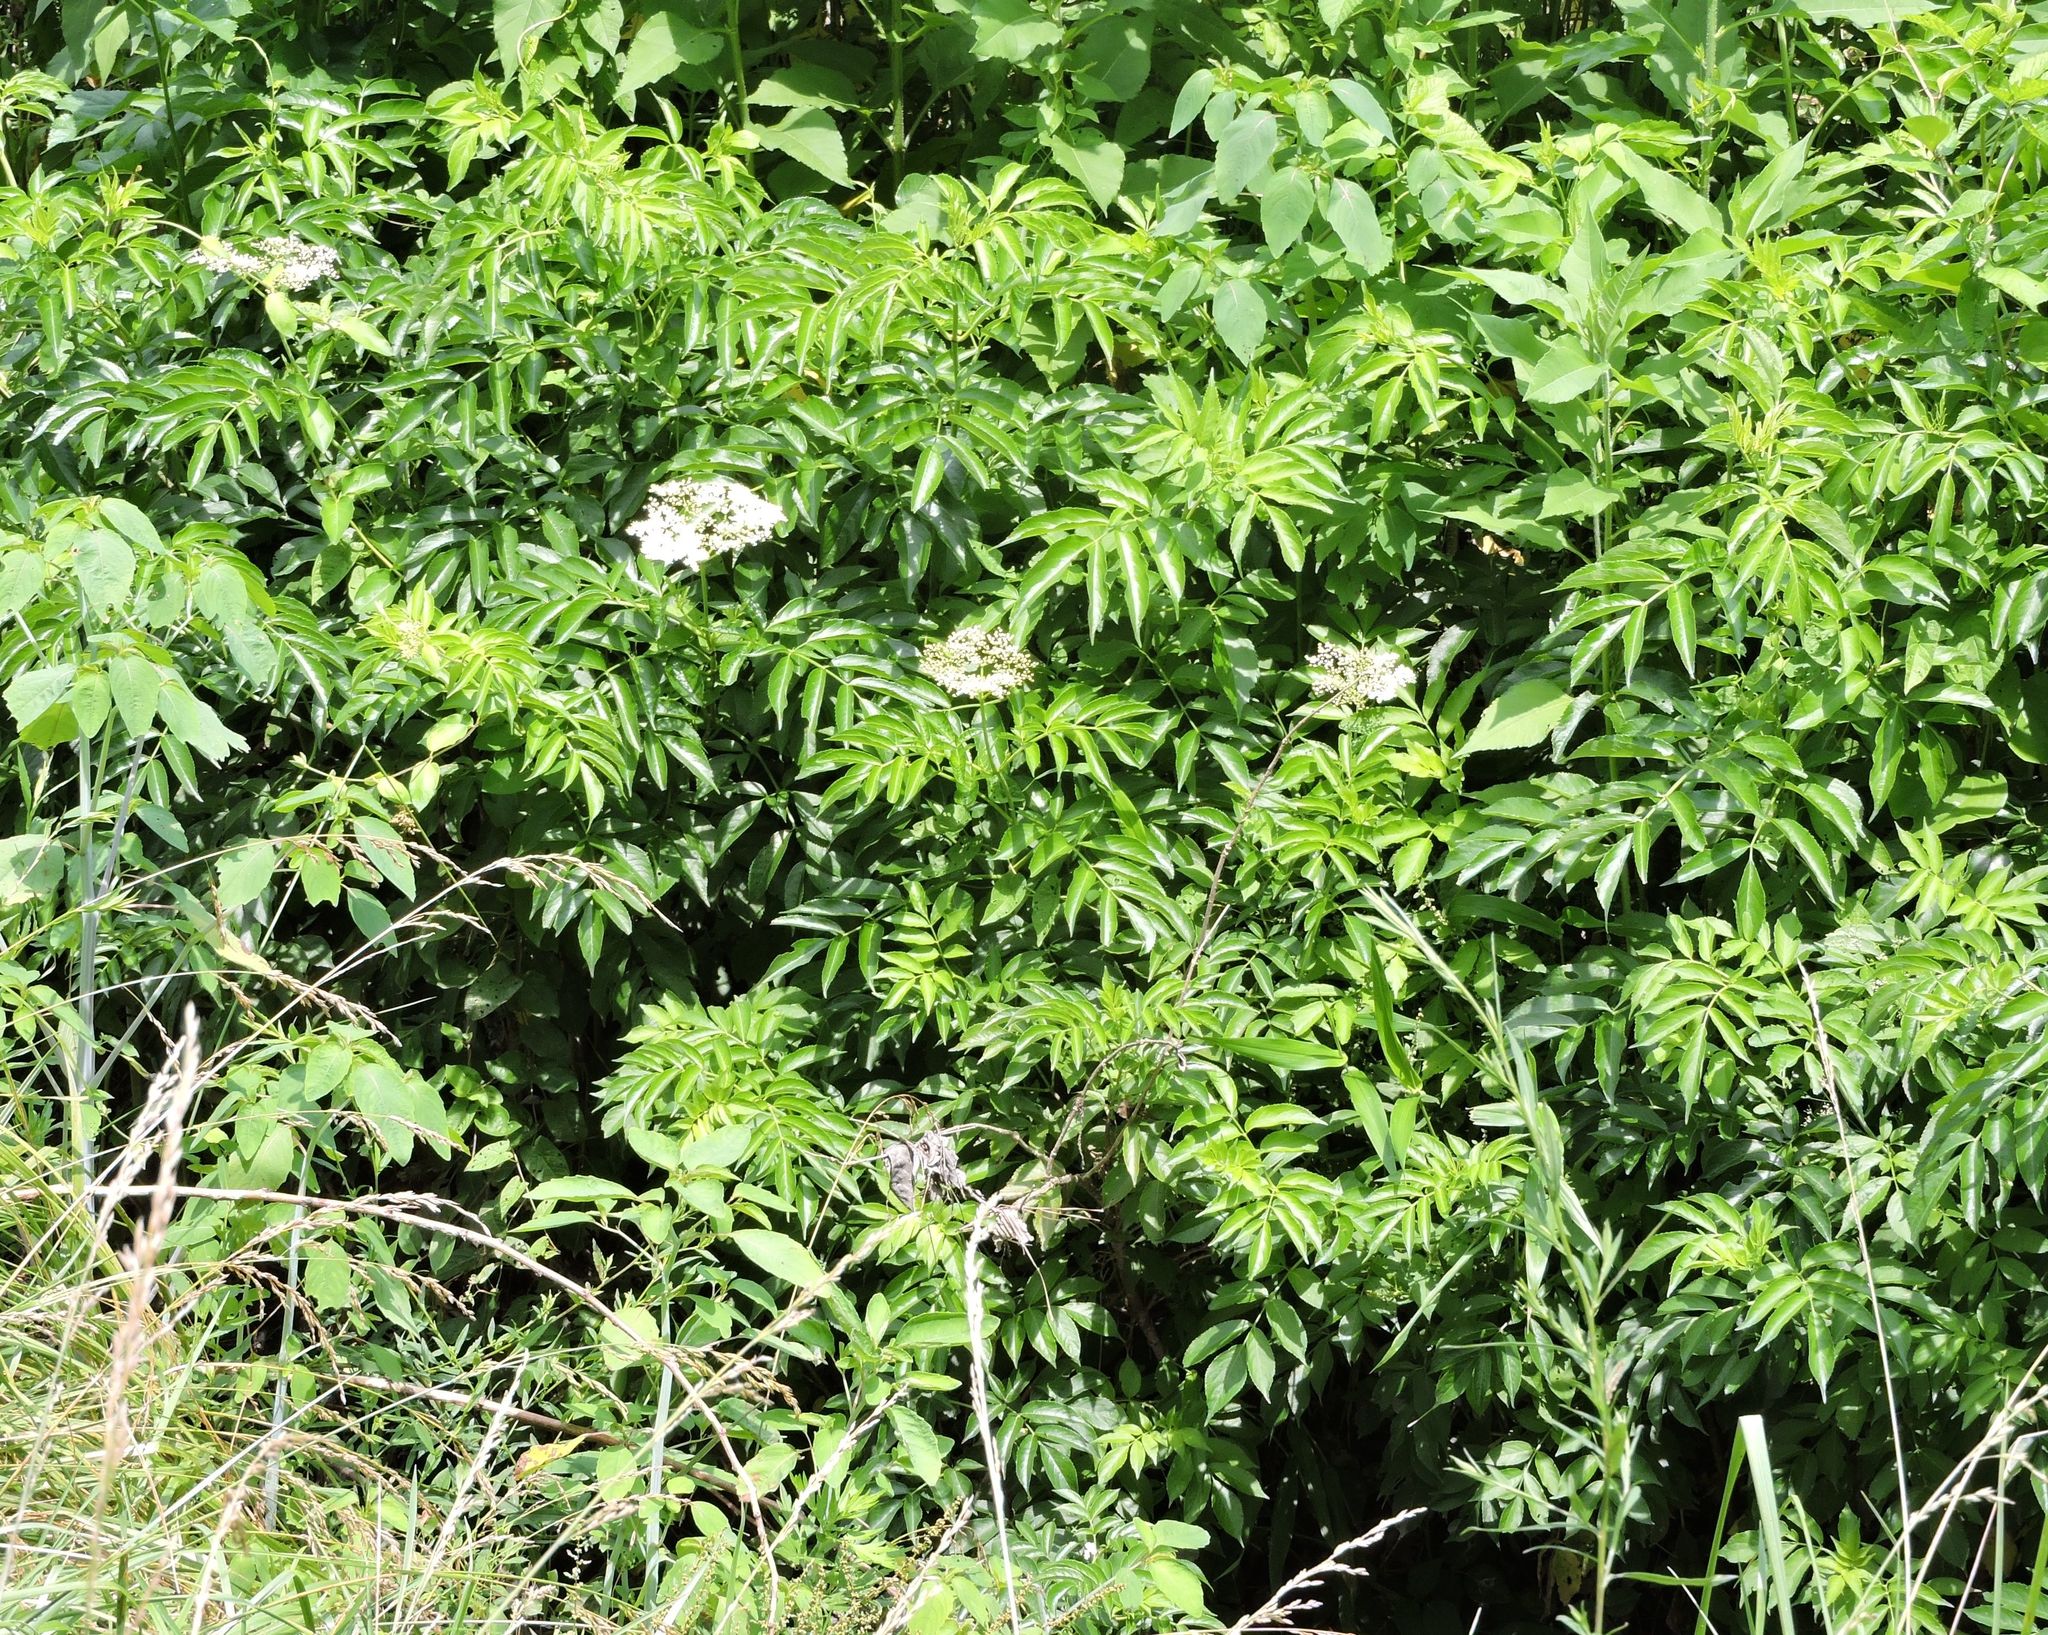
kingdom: Plantae
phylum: Tracheophyta
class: Magnoliopsida
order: Dipsacales
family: Viburnaceae
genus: Sambucus
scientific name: Sambucus canadensis
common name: American elder
